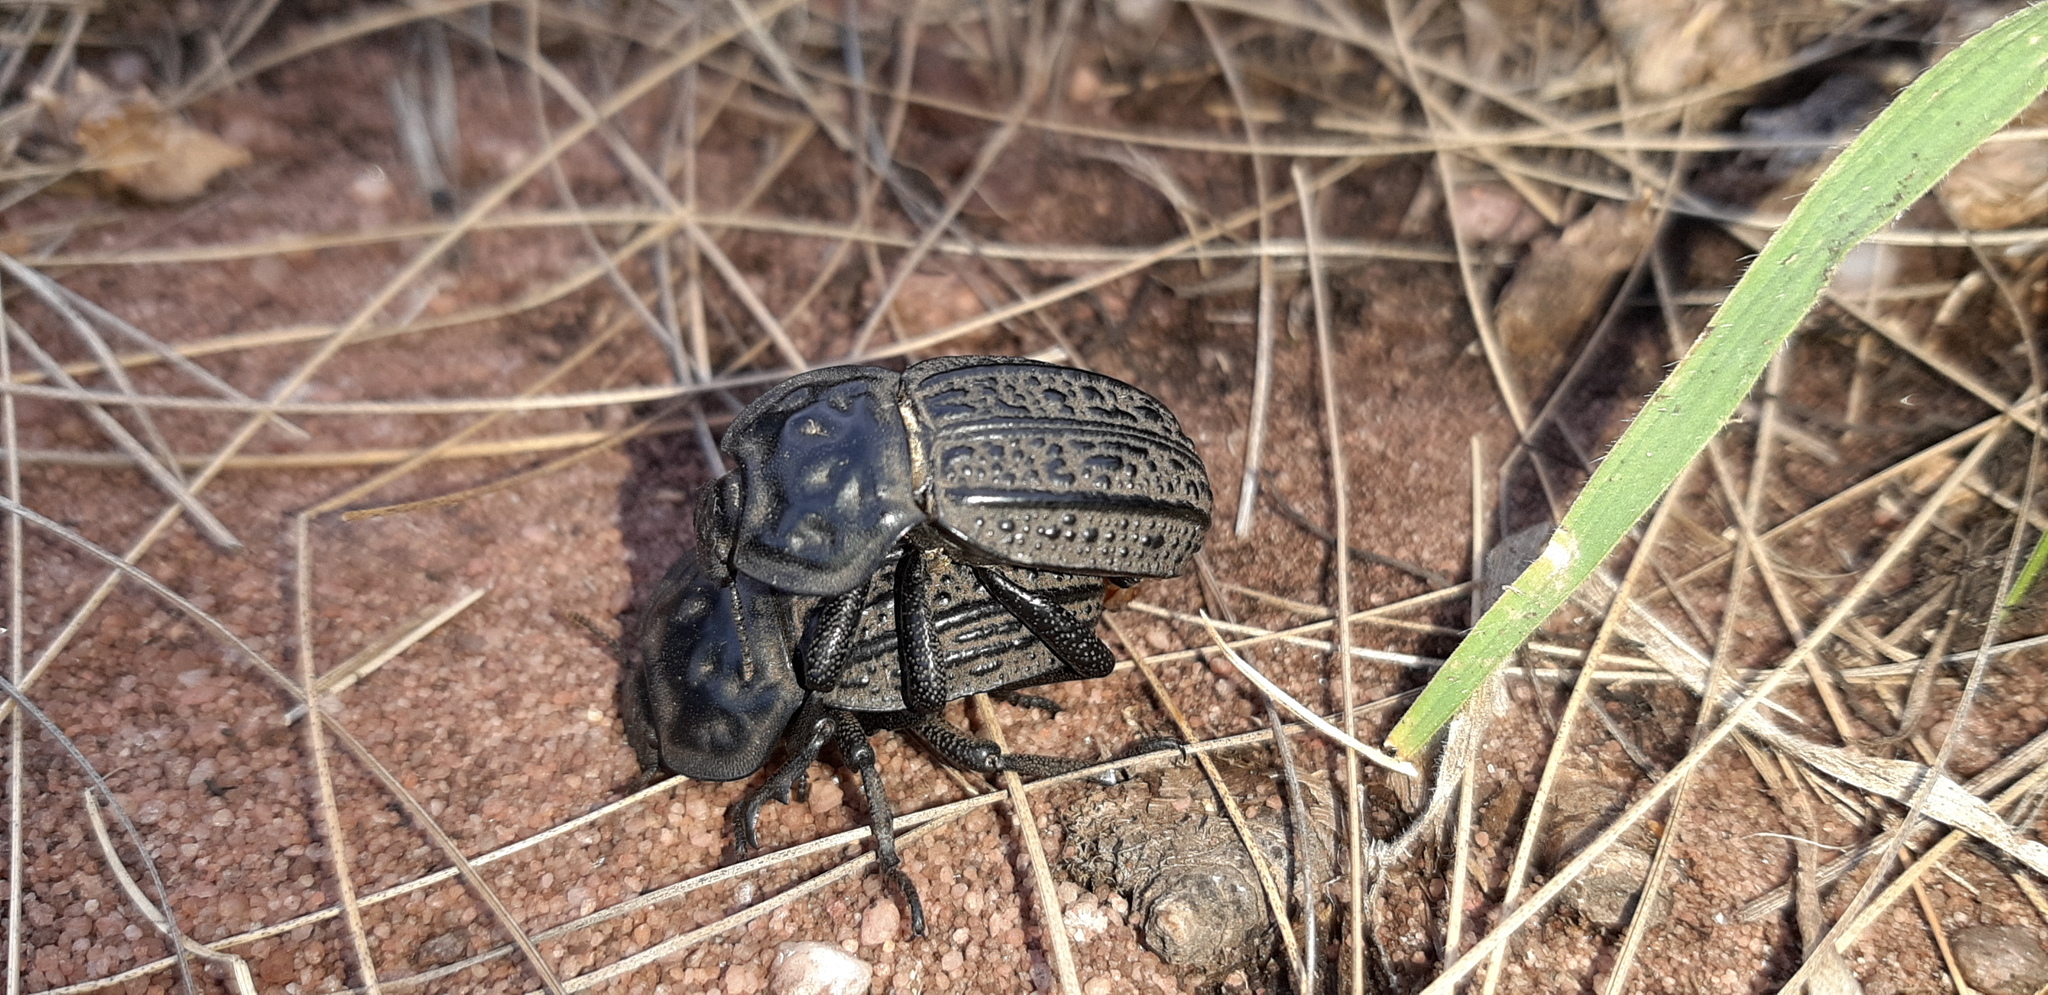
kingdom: Animalia
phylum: Arthropoda
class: Insecta
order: Coleoptera
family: Tenebrionidae
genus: Anomalipus
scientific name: Anomalipus
